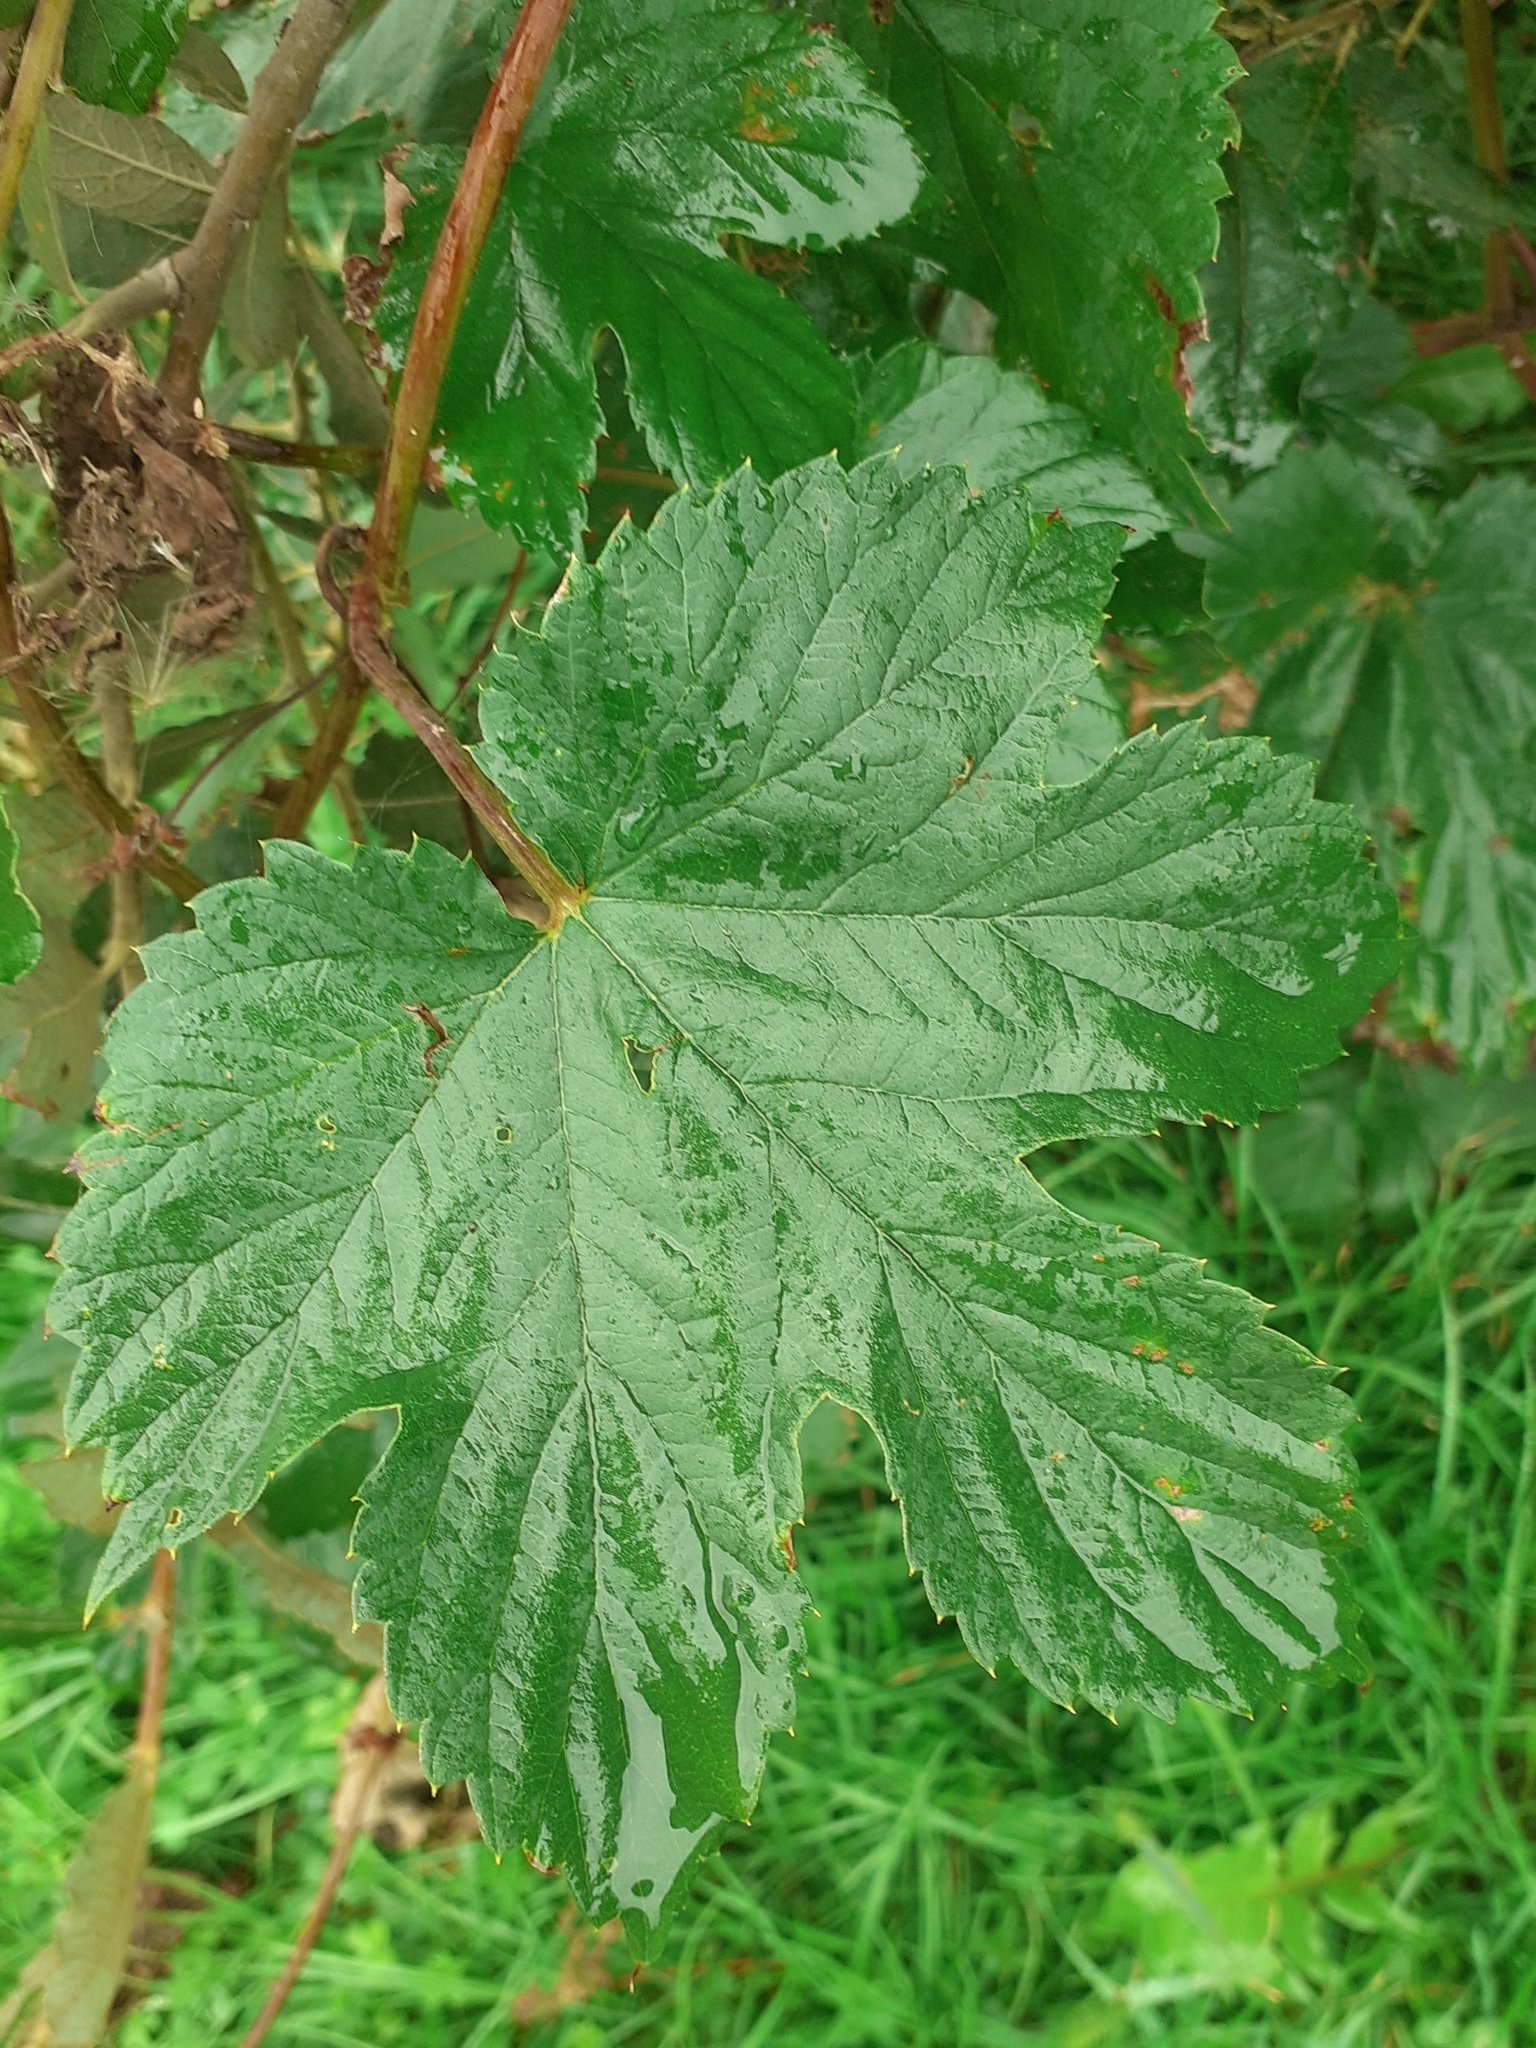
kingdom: Plantae
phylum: Tracheophyta
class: Magnoliopsida
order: Rosales
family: Cannabaceae
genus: Humulus
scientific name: Humulus lupulus
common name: Hop
